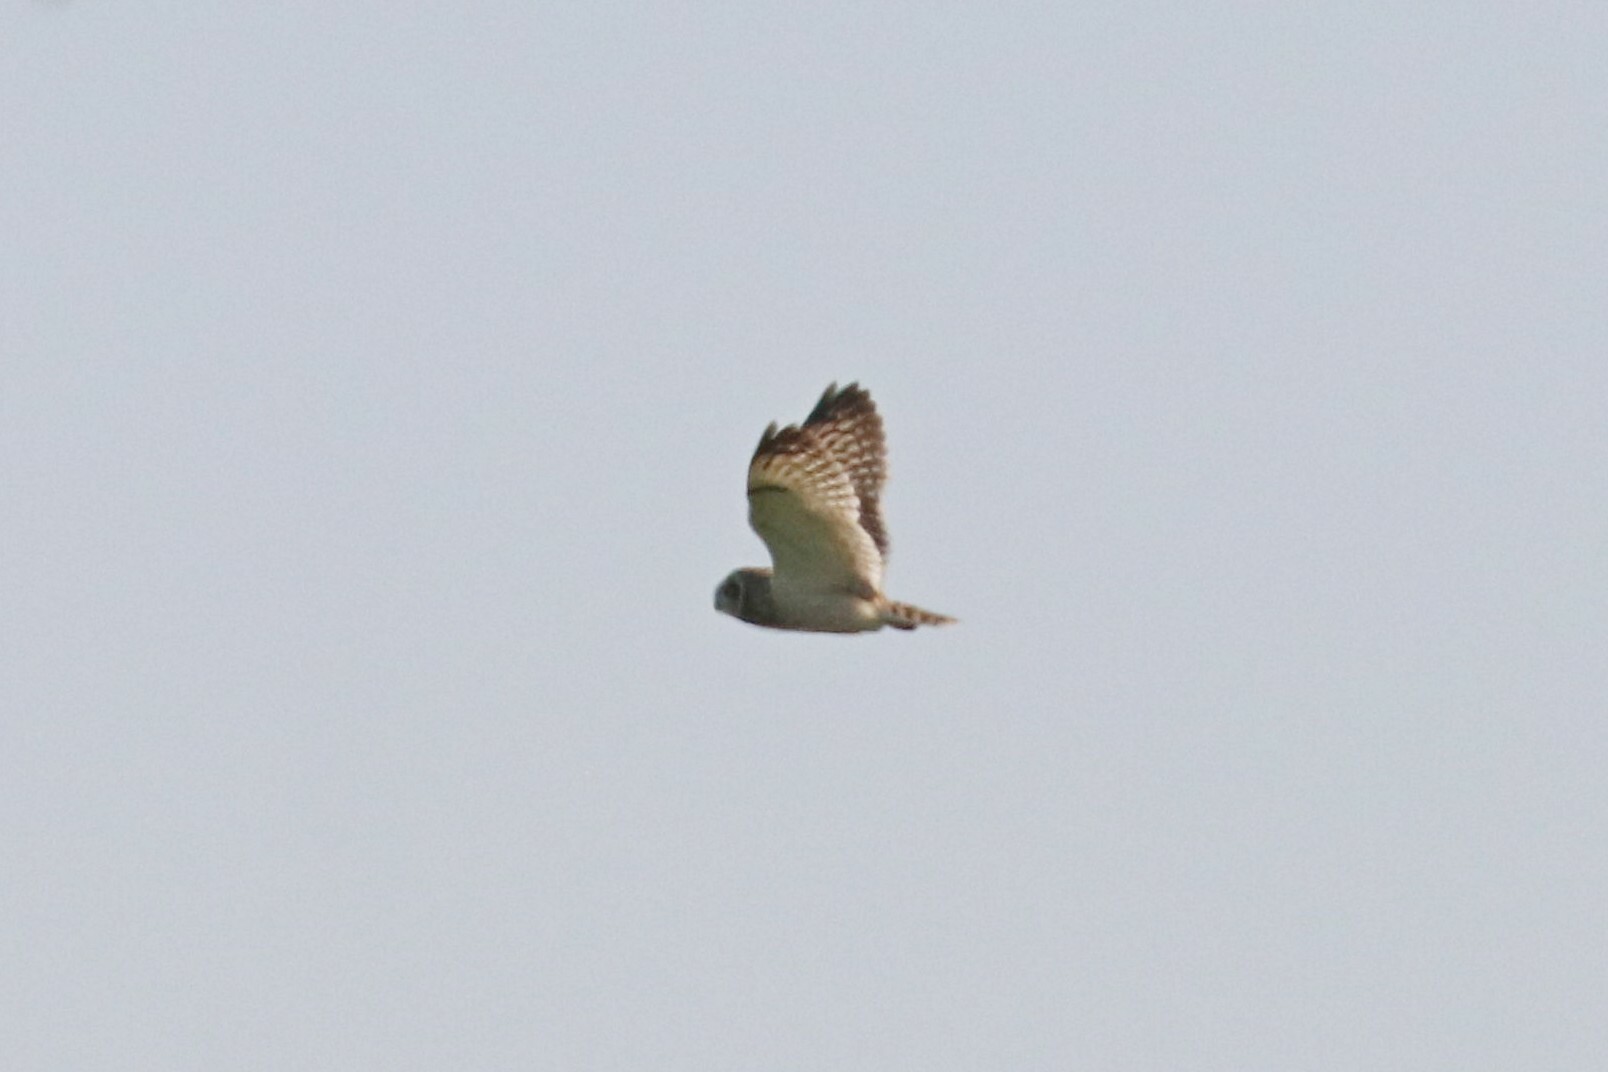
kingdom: Animalia
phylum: Chordata
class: Aves
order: Strigiformes
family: Strigidae
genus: Asio
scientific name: Asio flammeus
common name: Short-eared owl
